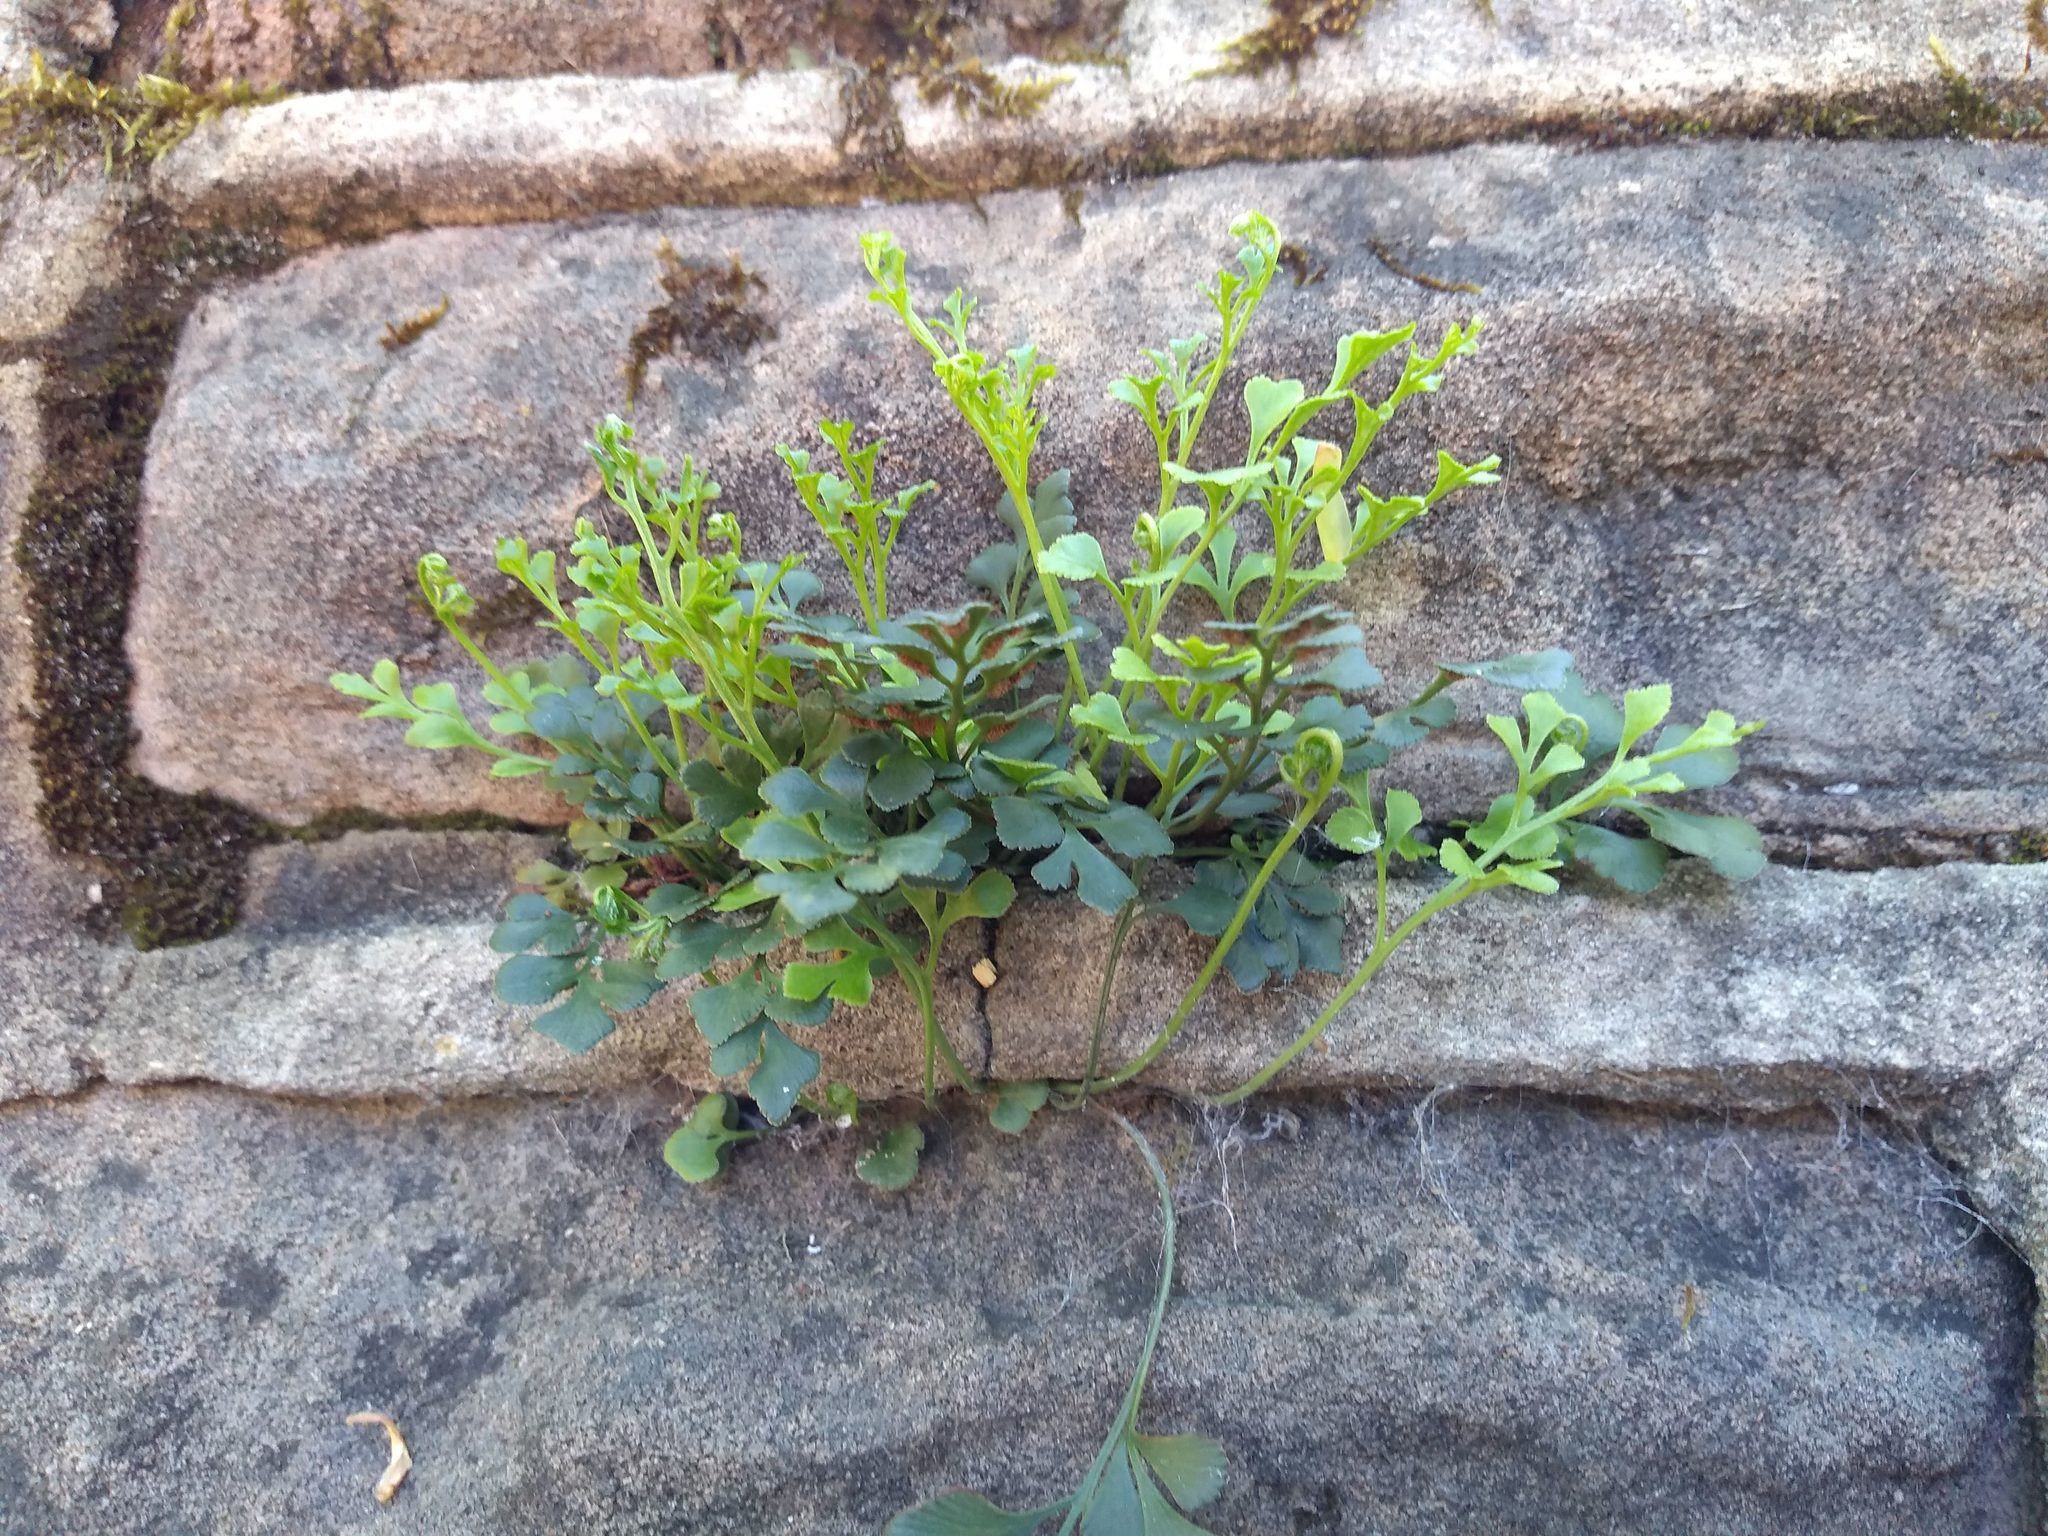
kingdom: Plantae
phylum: Tracheophyta
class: Polypodiopsida
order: Polypodiales
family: Aspleniaceae
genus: Asplenium
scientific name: Asplenium ruta-muraria
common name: Wall-rue
